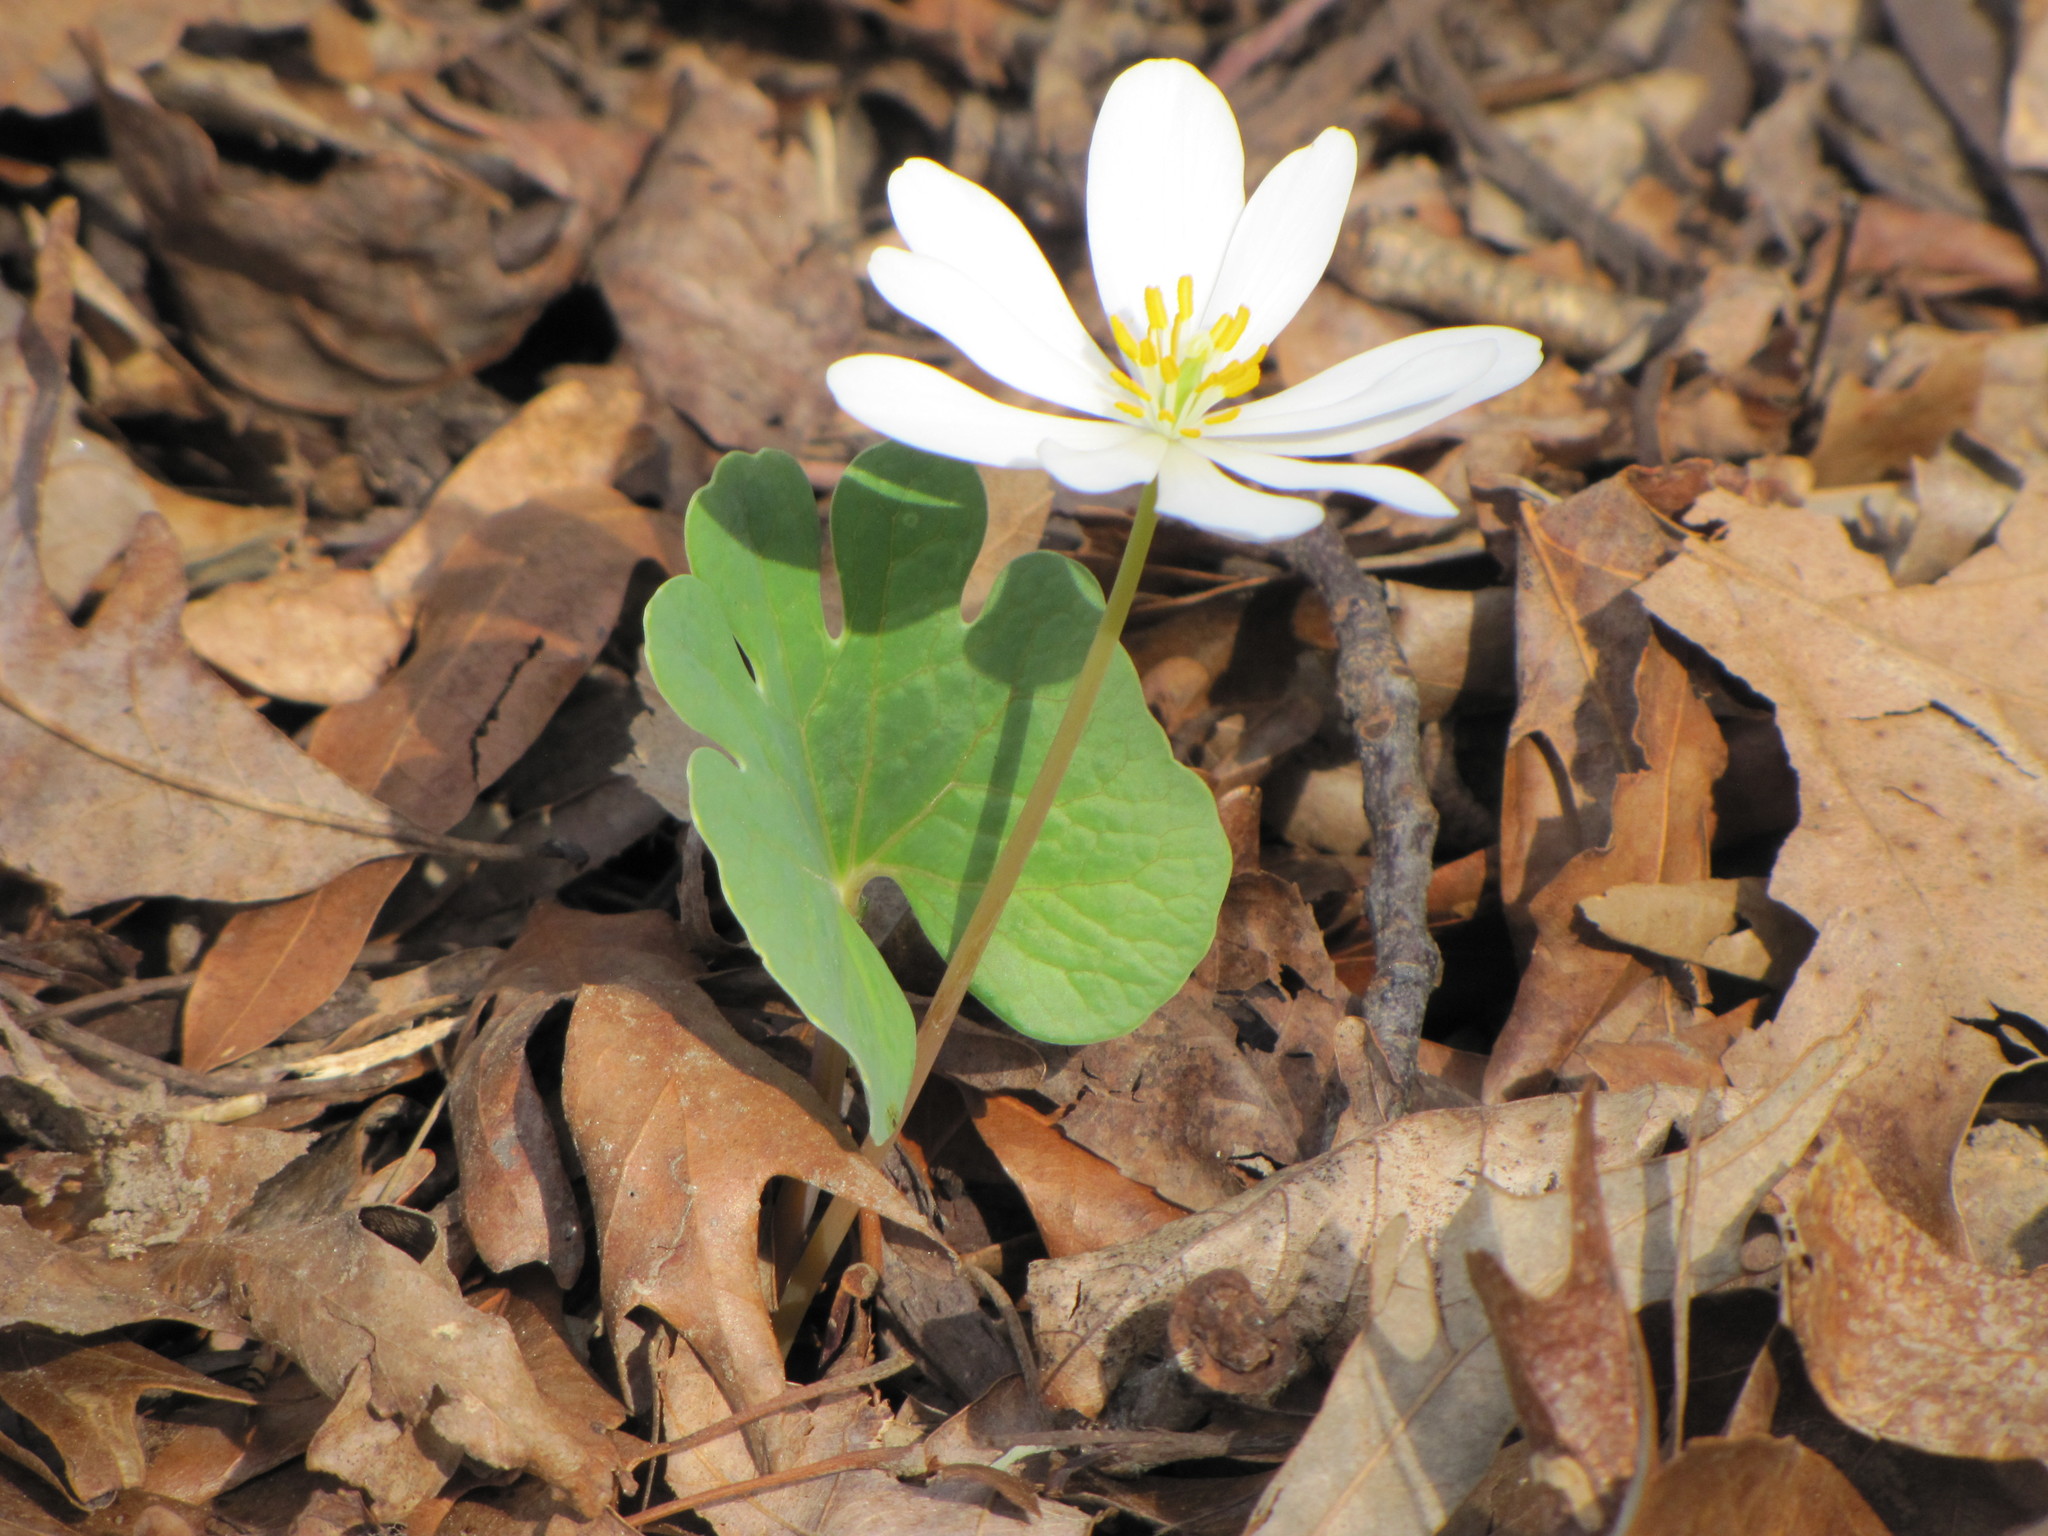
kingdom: Plantae
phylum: Tracheophyta
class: Magnoliopsida
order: Ranunculales
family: Papaveraceae
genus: Sanguinaria
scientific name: Sanguinaria canadensis
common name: Bloodroot
